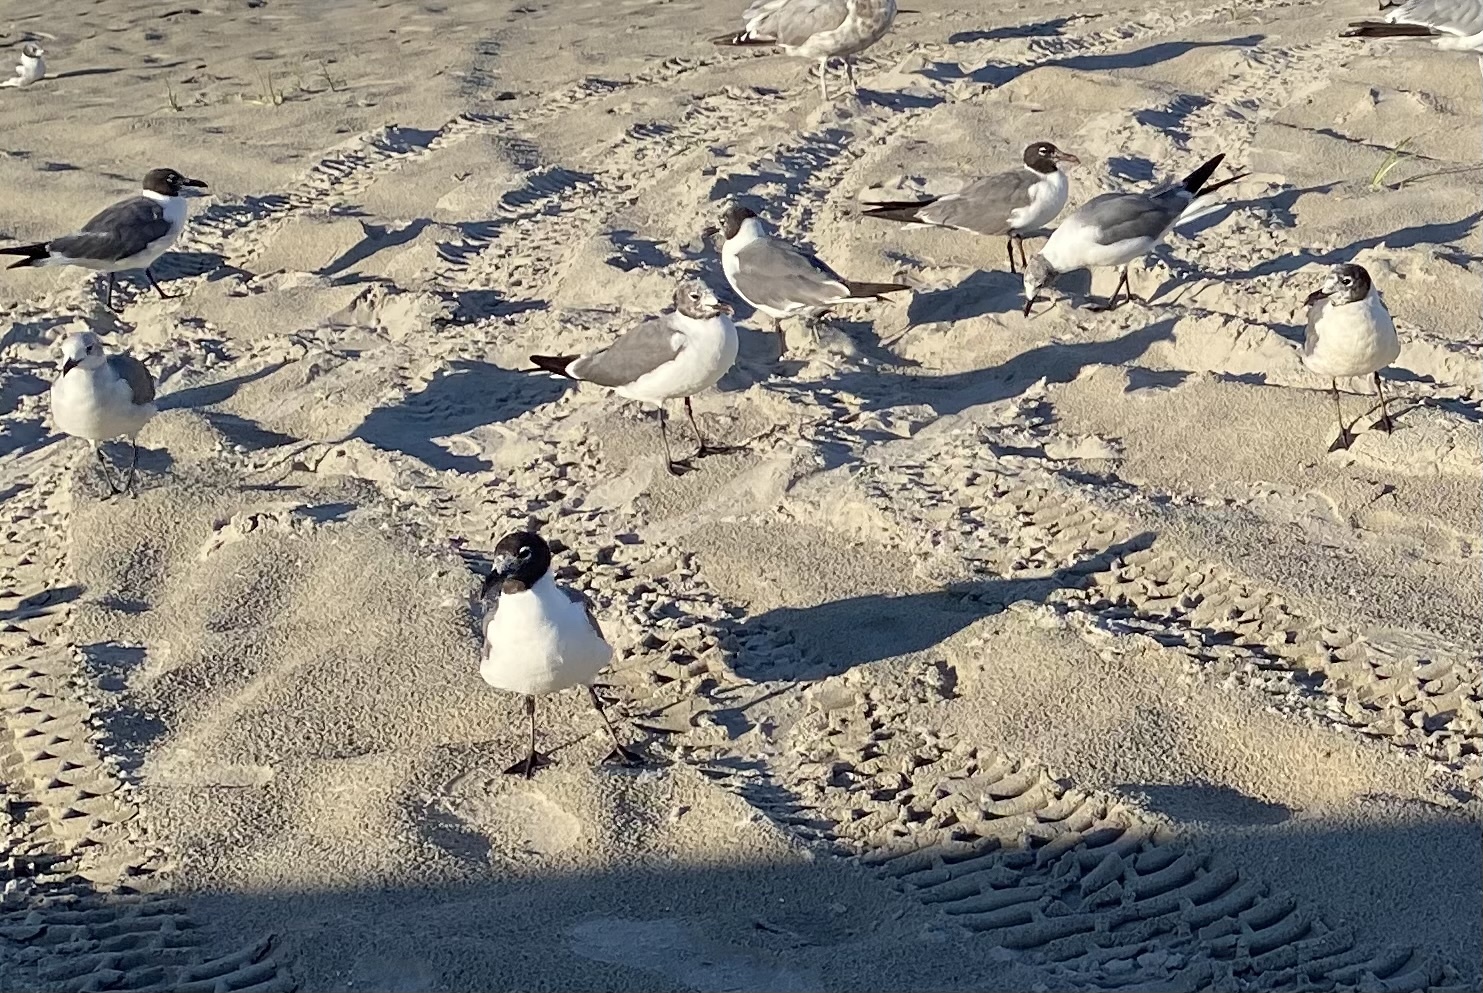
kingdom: Animalia
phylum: Chordata
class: Aves
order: Charadriiformes
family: Laridae
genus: Leucophaeus
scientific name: Leucophaeus atricilla
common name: Laughing gull
